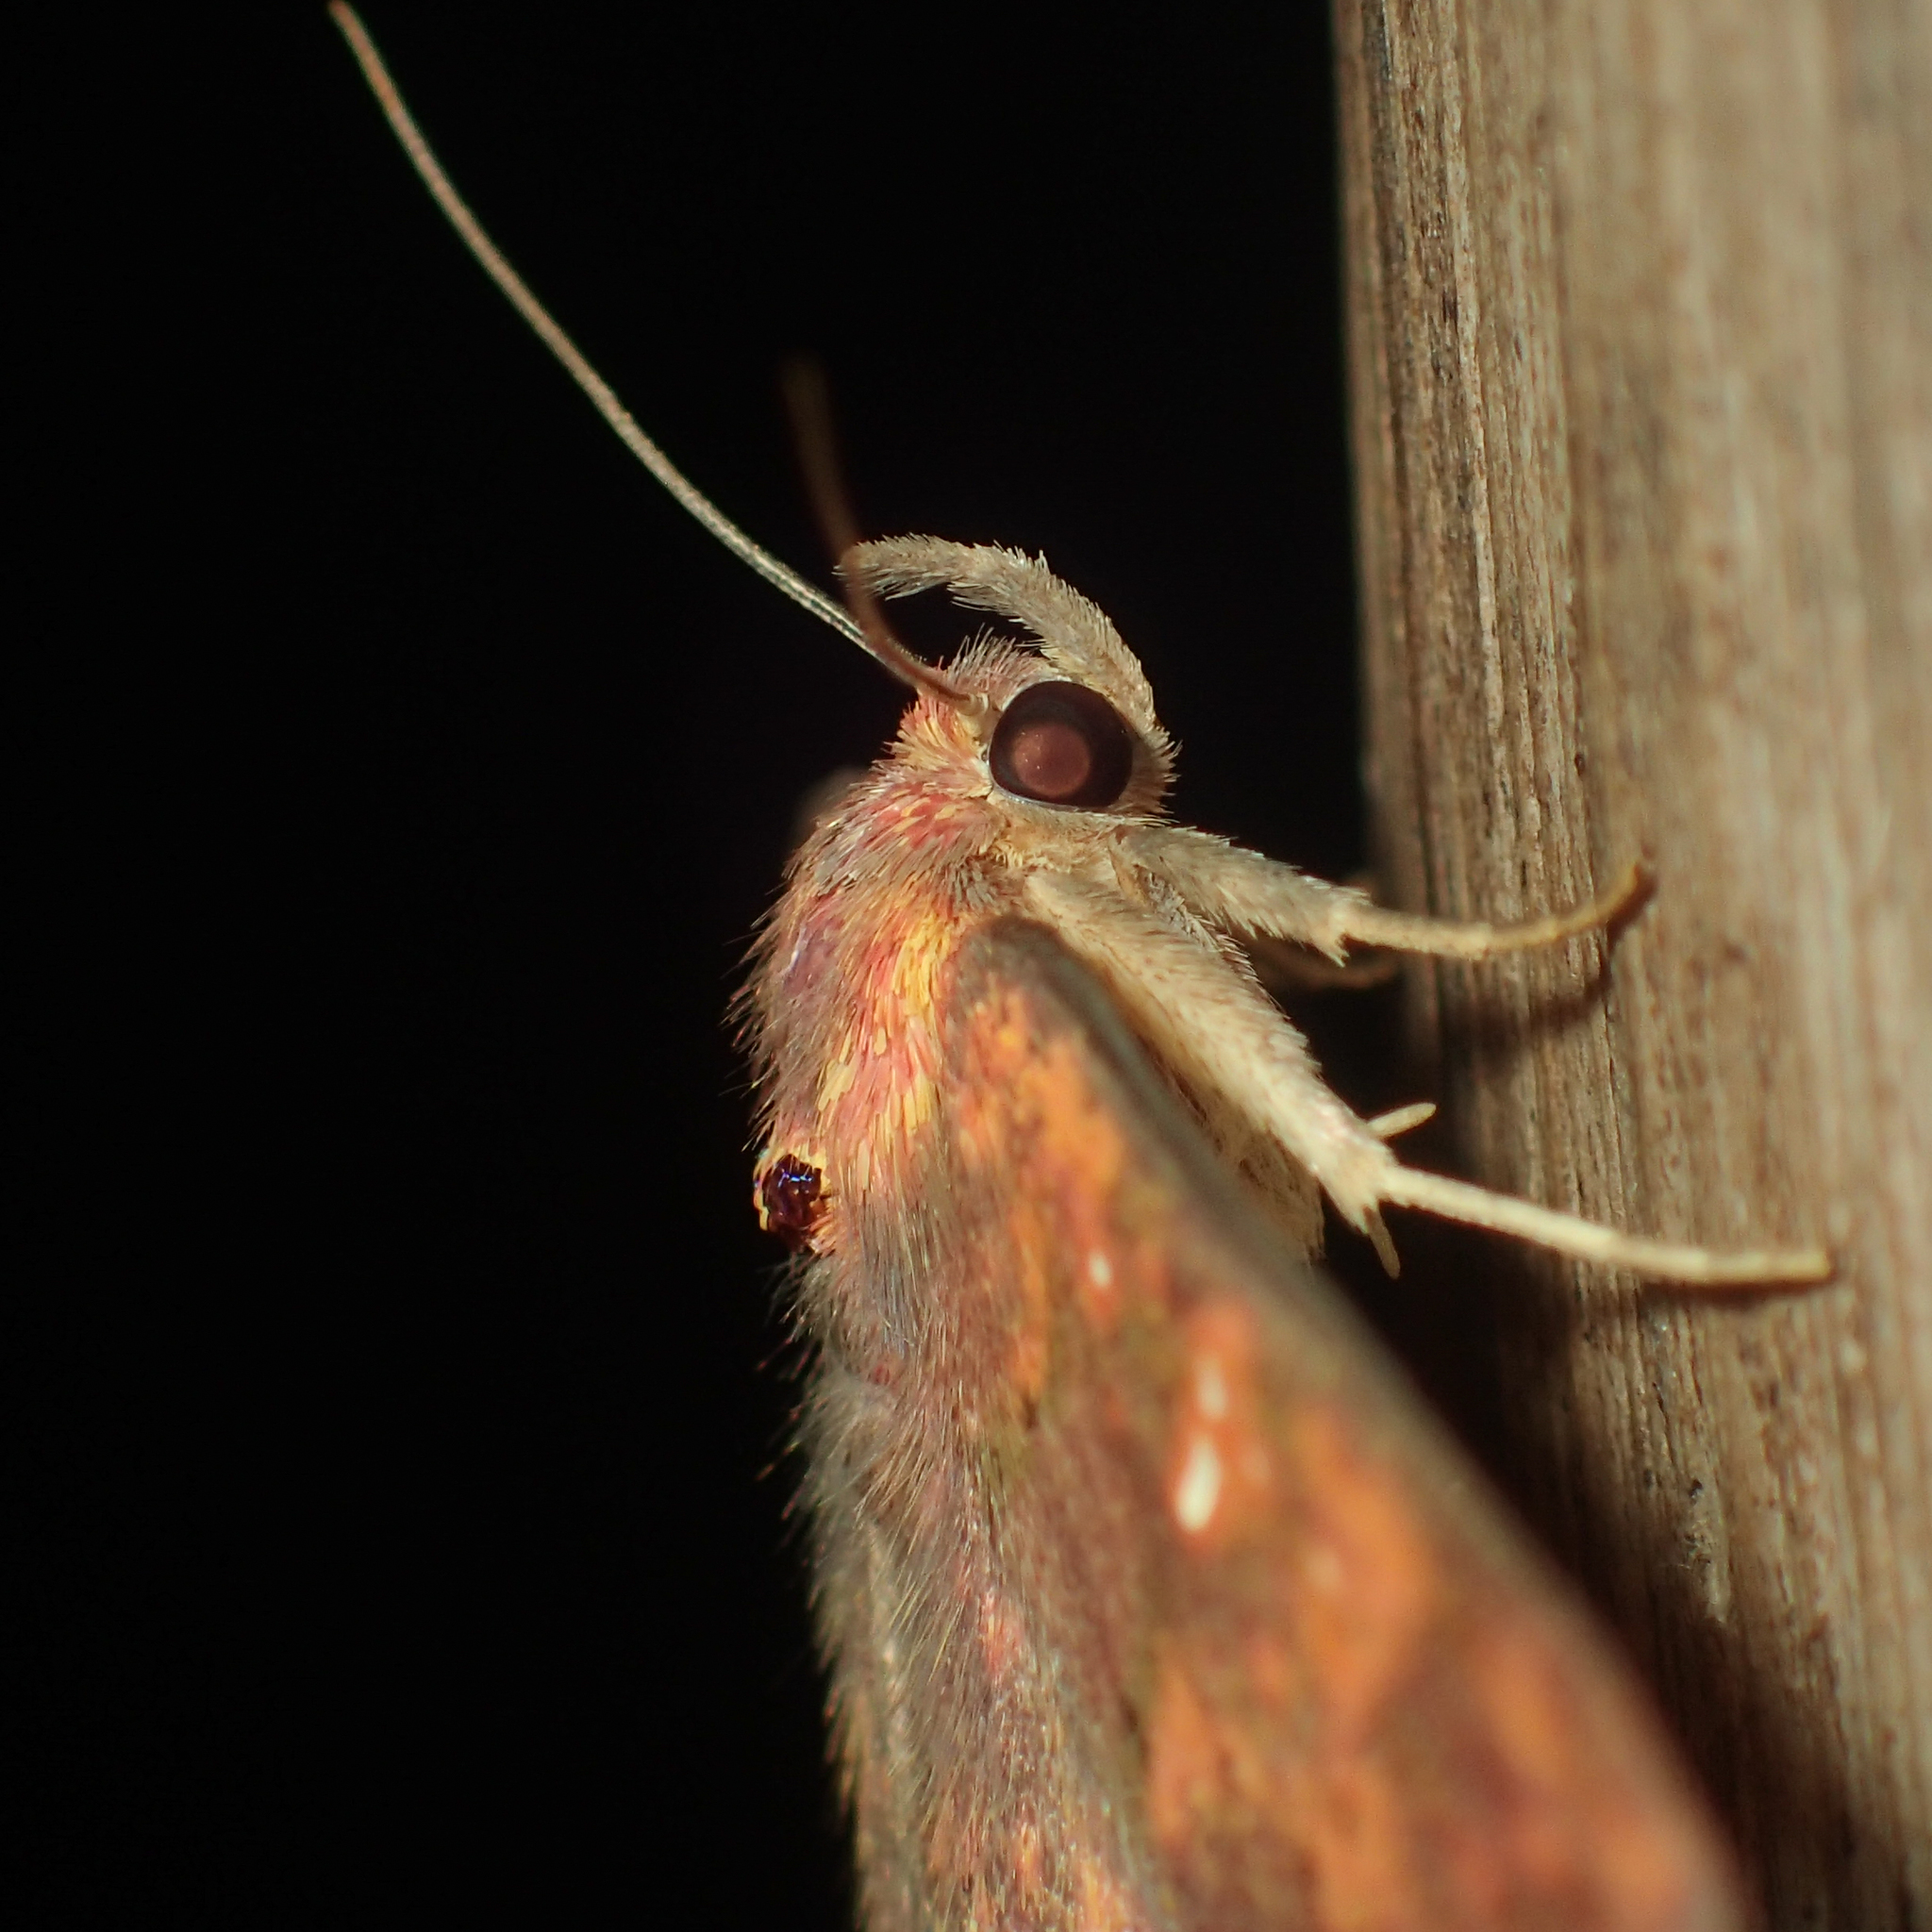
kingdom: Animalia
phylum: Arthropoda
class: Insecta
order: Lepidoptera
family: Erebidae
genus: Sarobides
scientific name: Sarobides inconclusa
